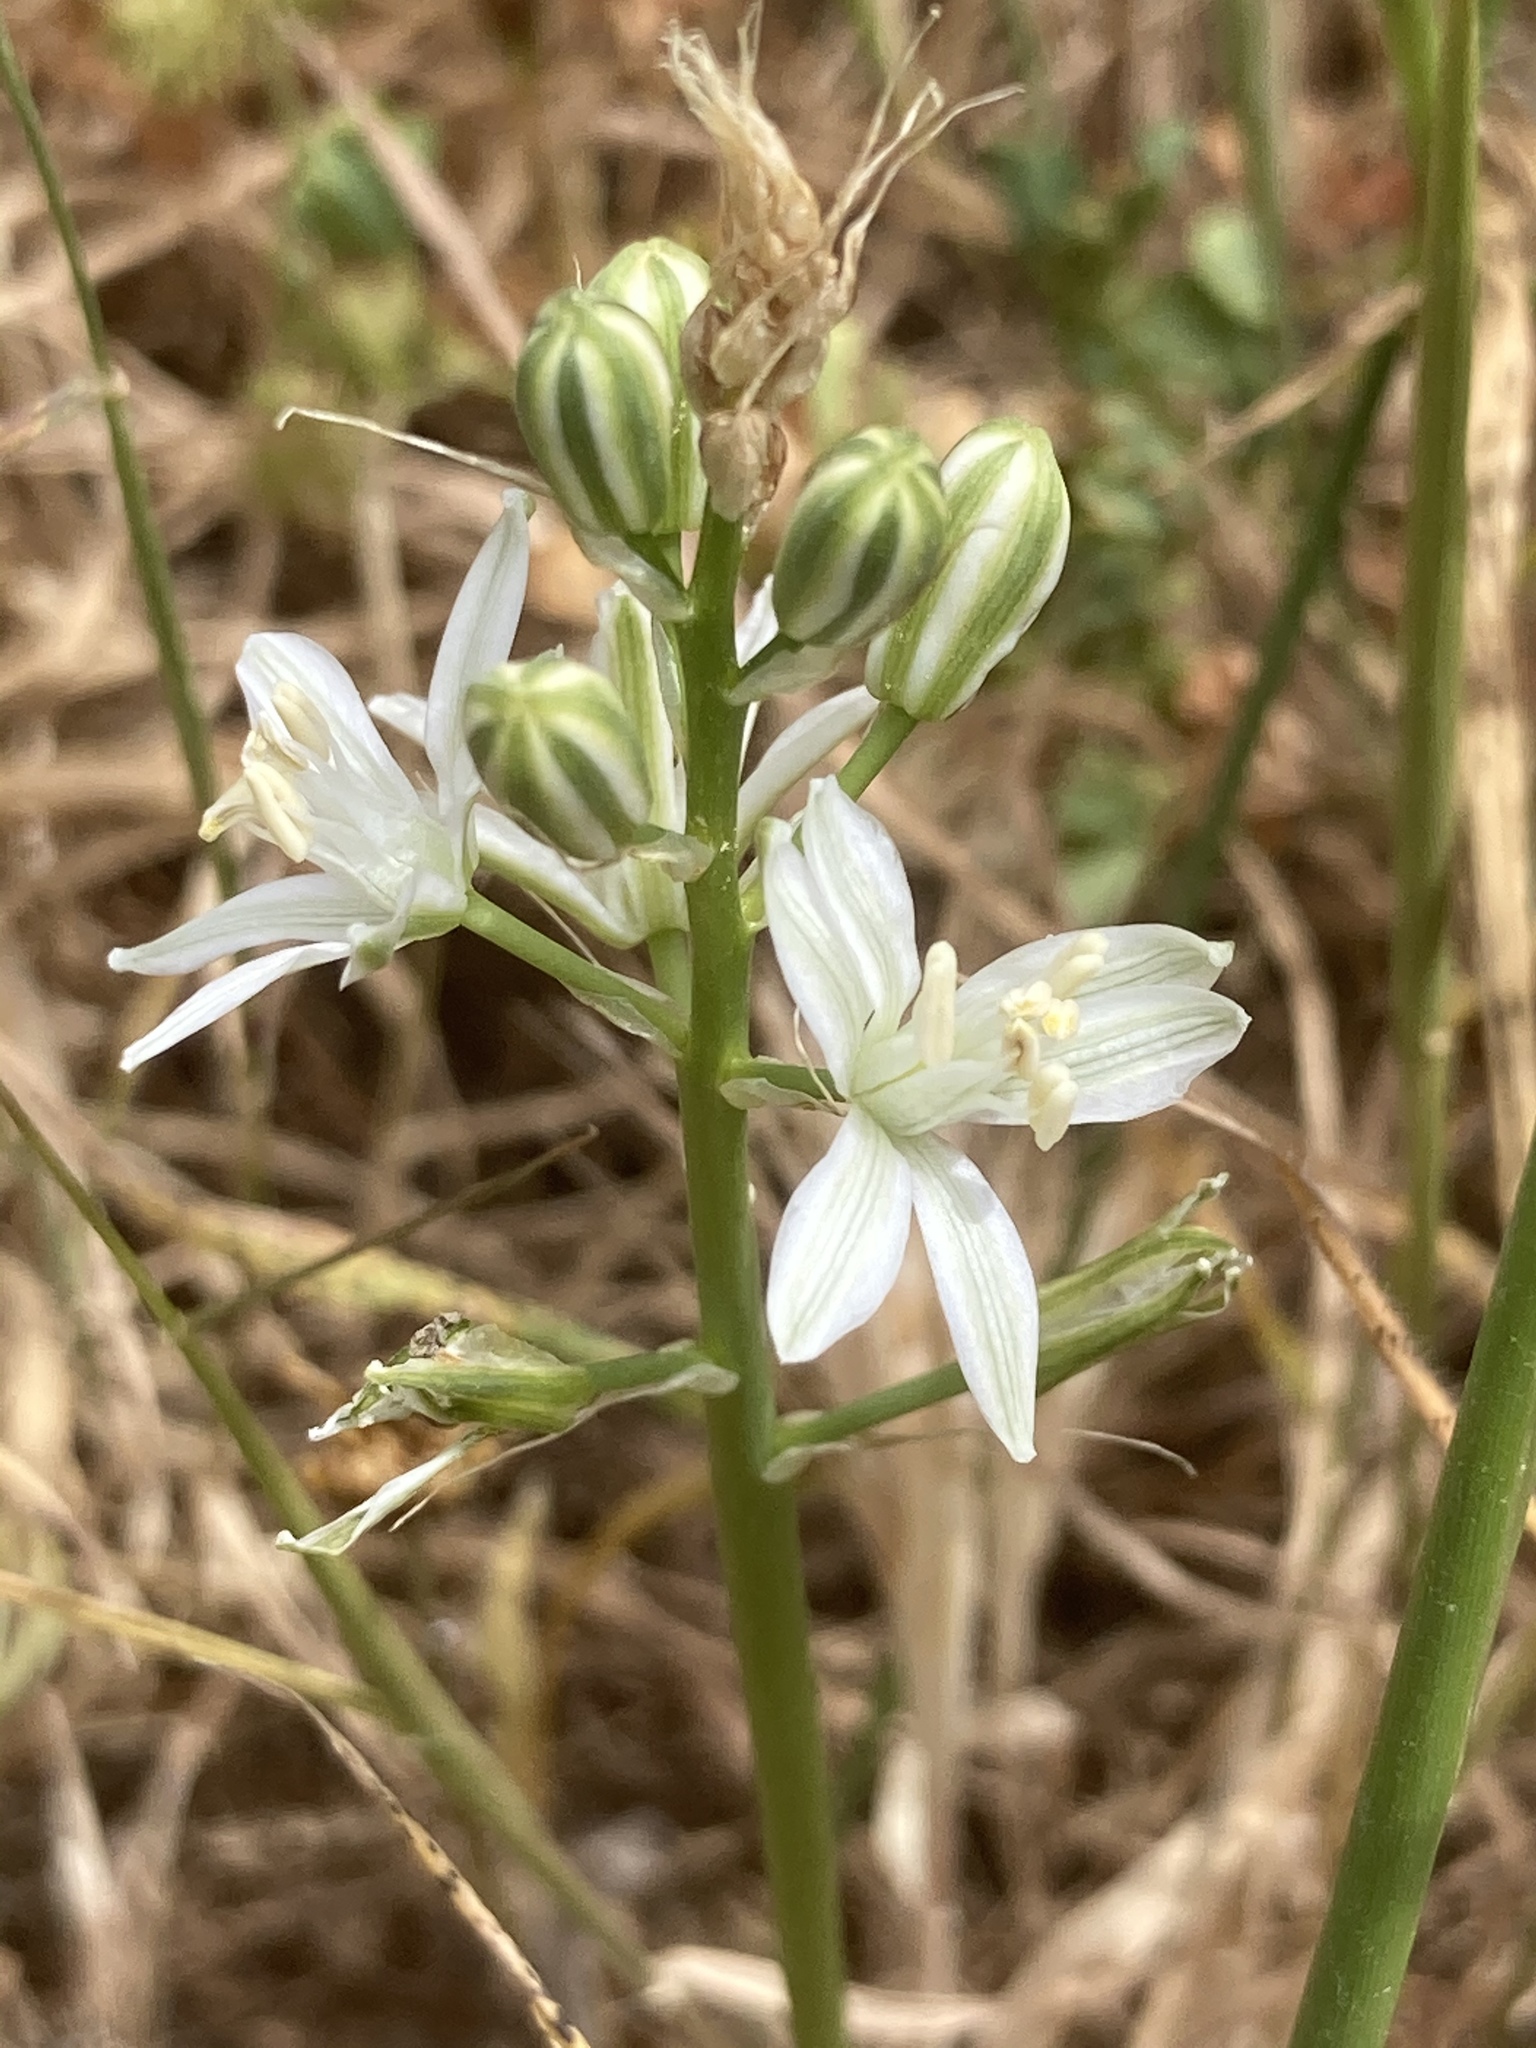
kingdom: Plantae
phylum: Tracheophyta
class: Liliopsida
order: Asparagales
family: Asparagaceae
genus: Ornithogalum
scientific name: Ornithogalum narbonense
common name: Bath-asparagus
